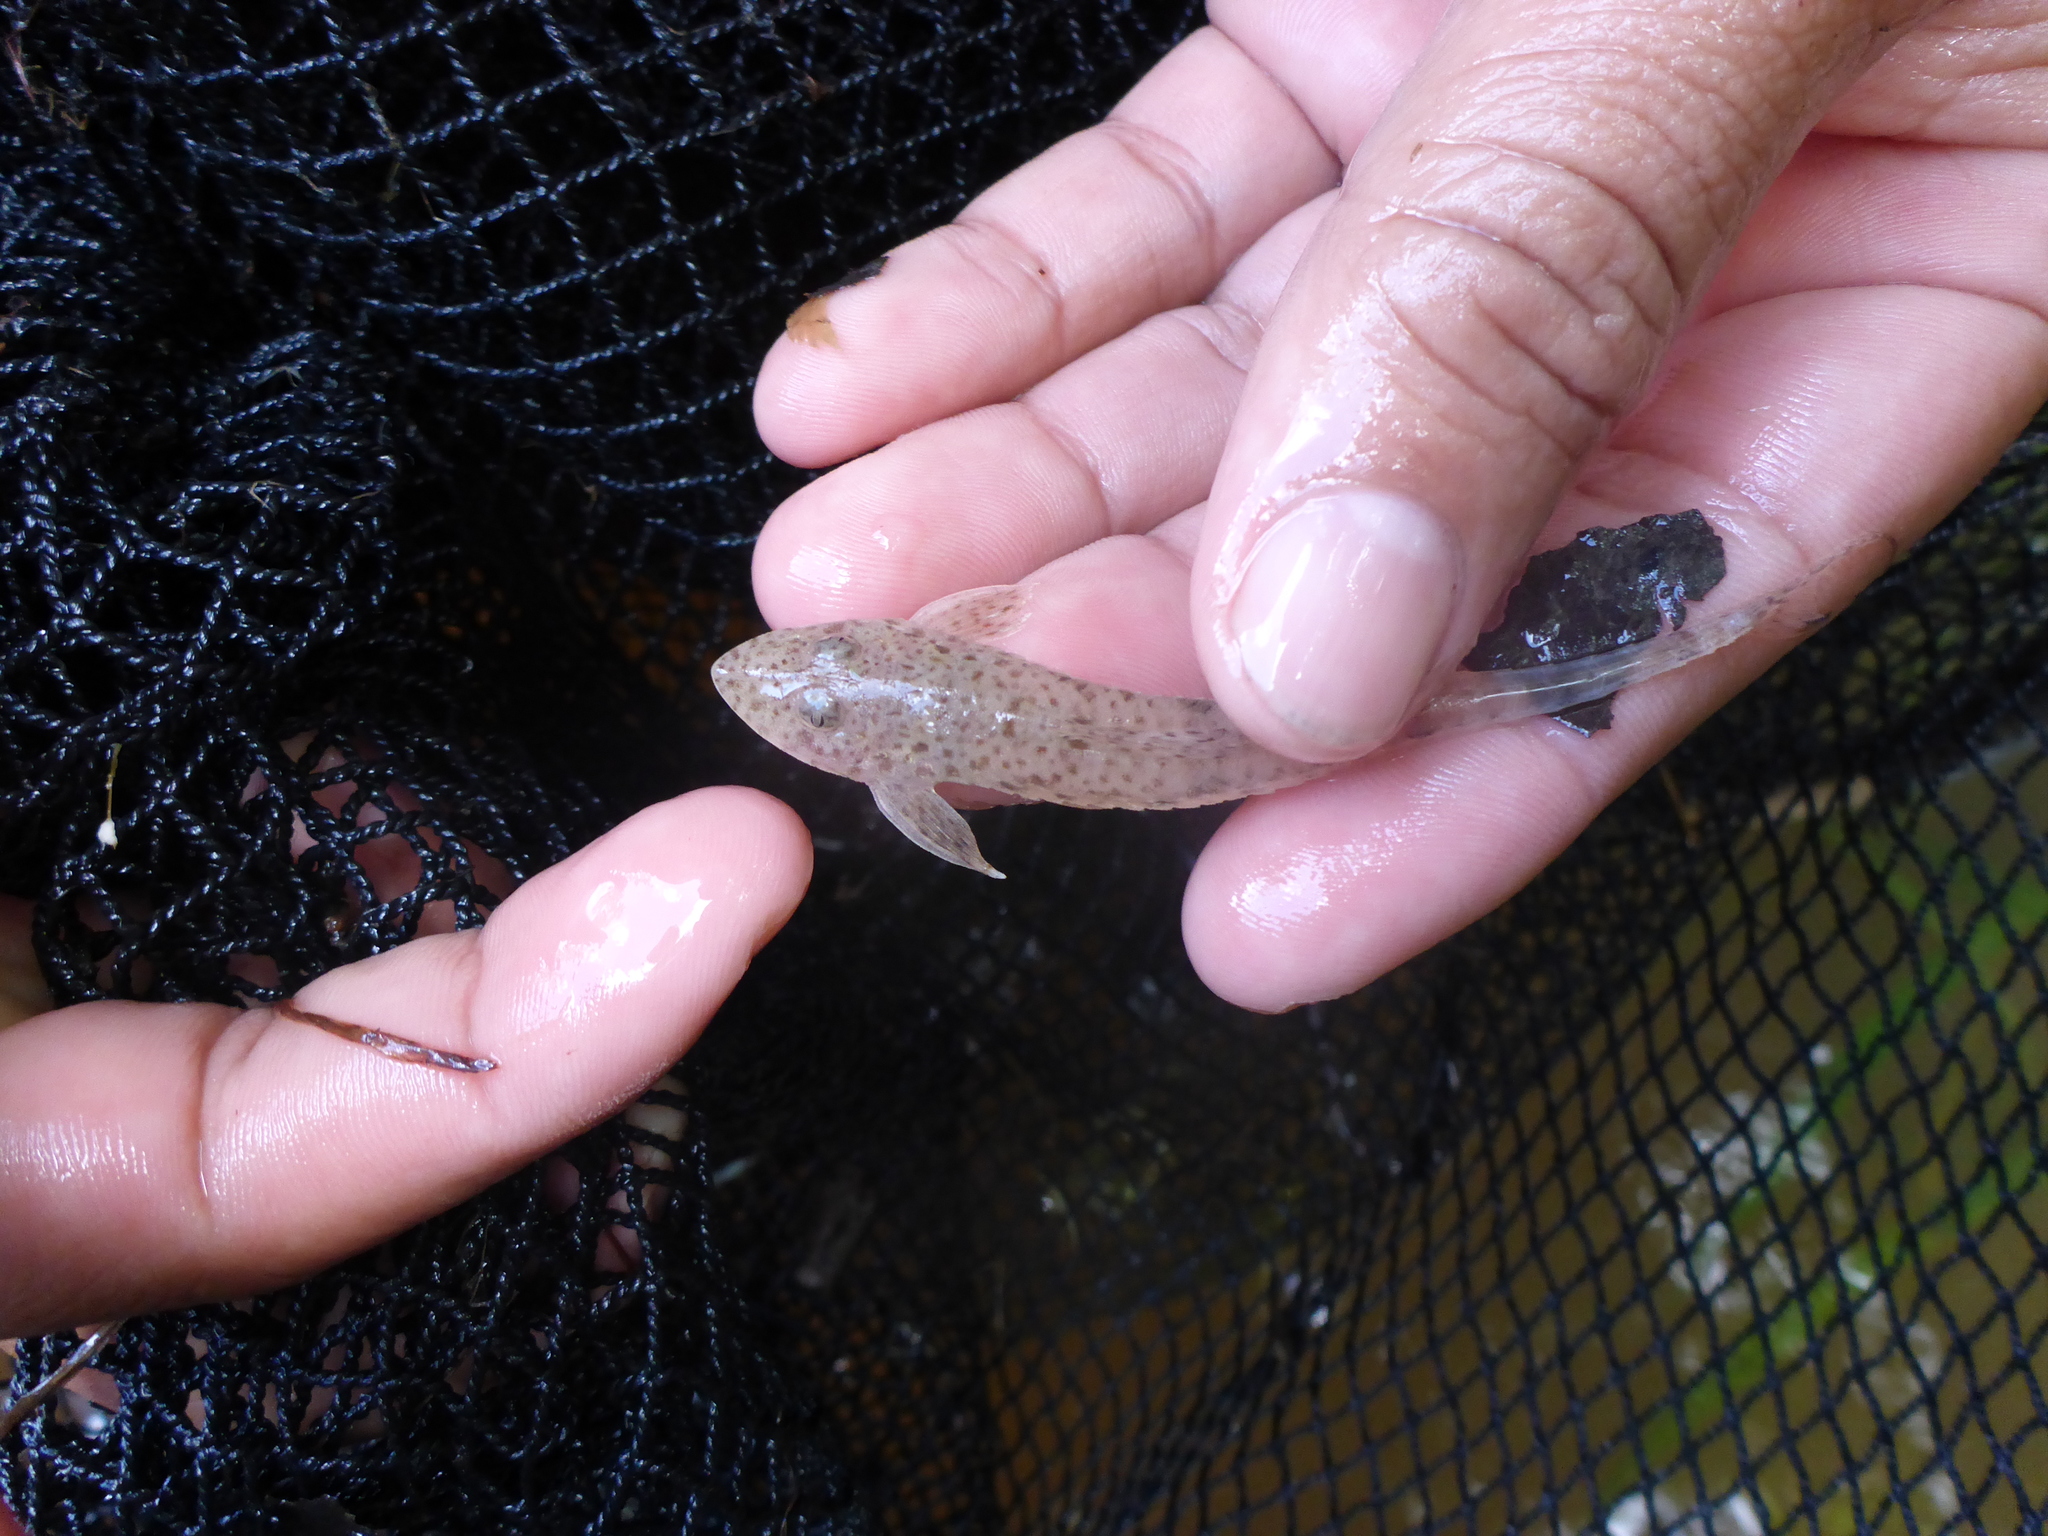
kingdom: Animalia
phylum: Chordata
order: Siluriformes
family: Loricariidae
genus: Limatulichthys
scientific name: Limatulichthys griseus
